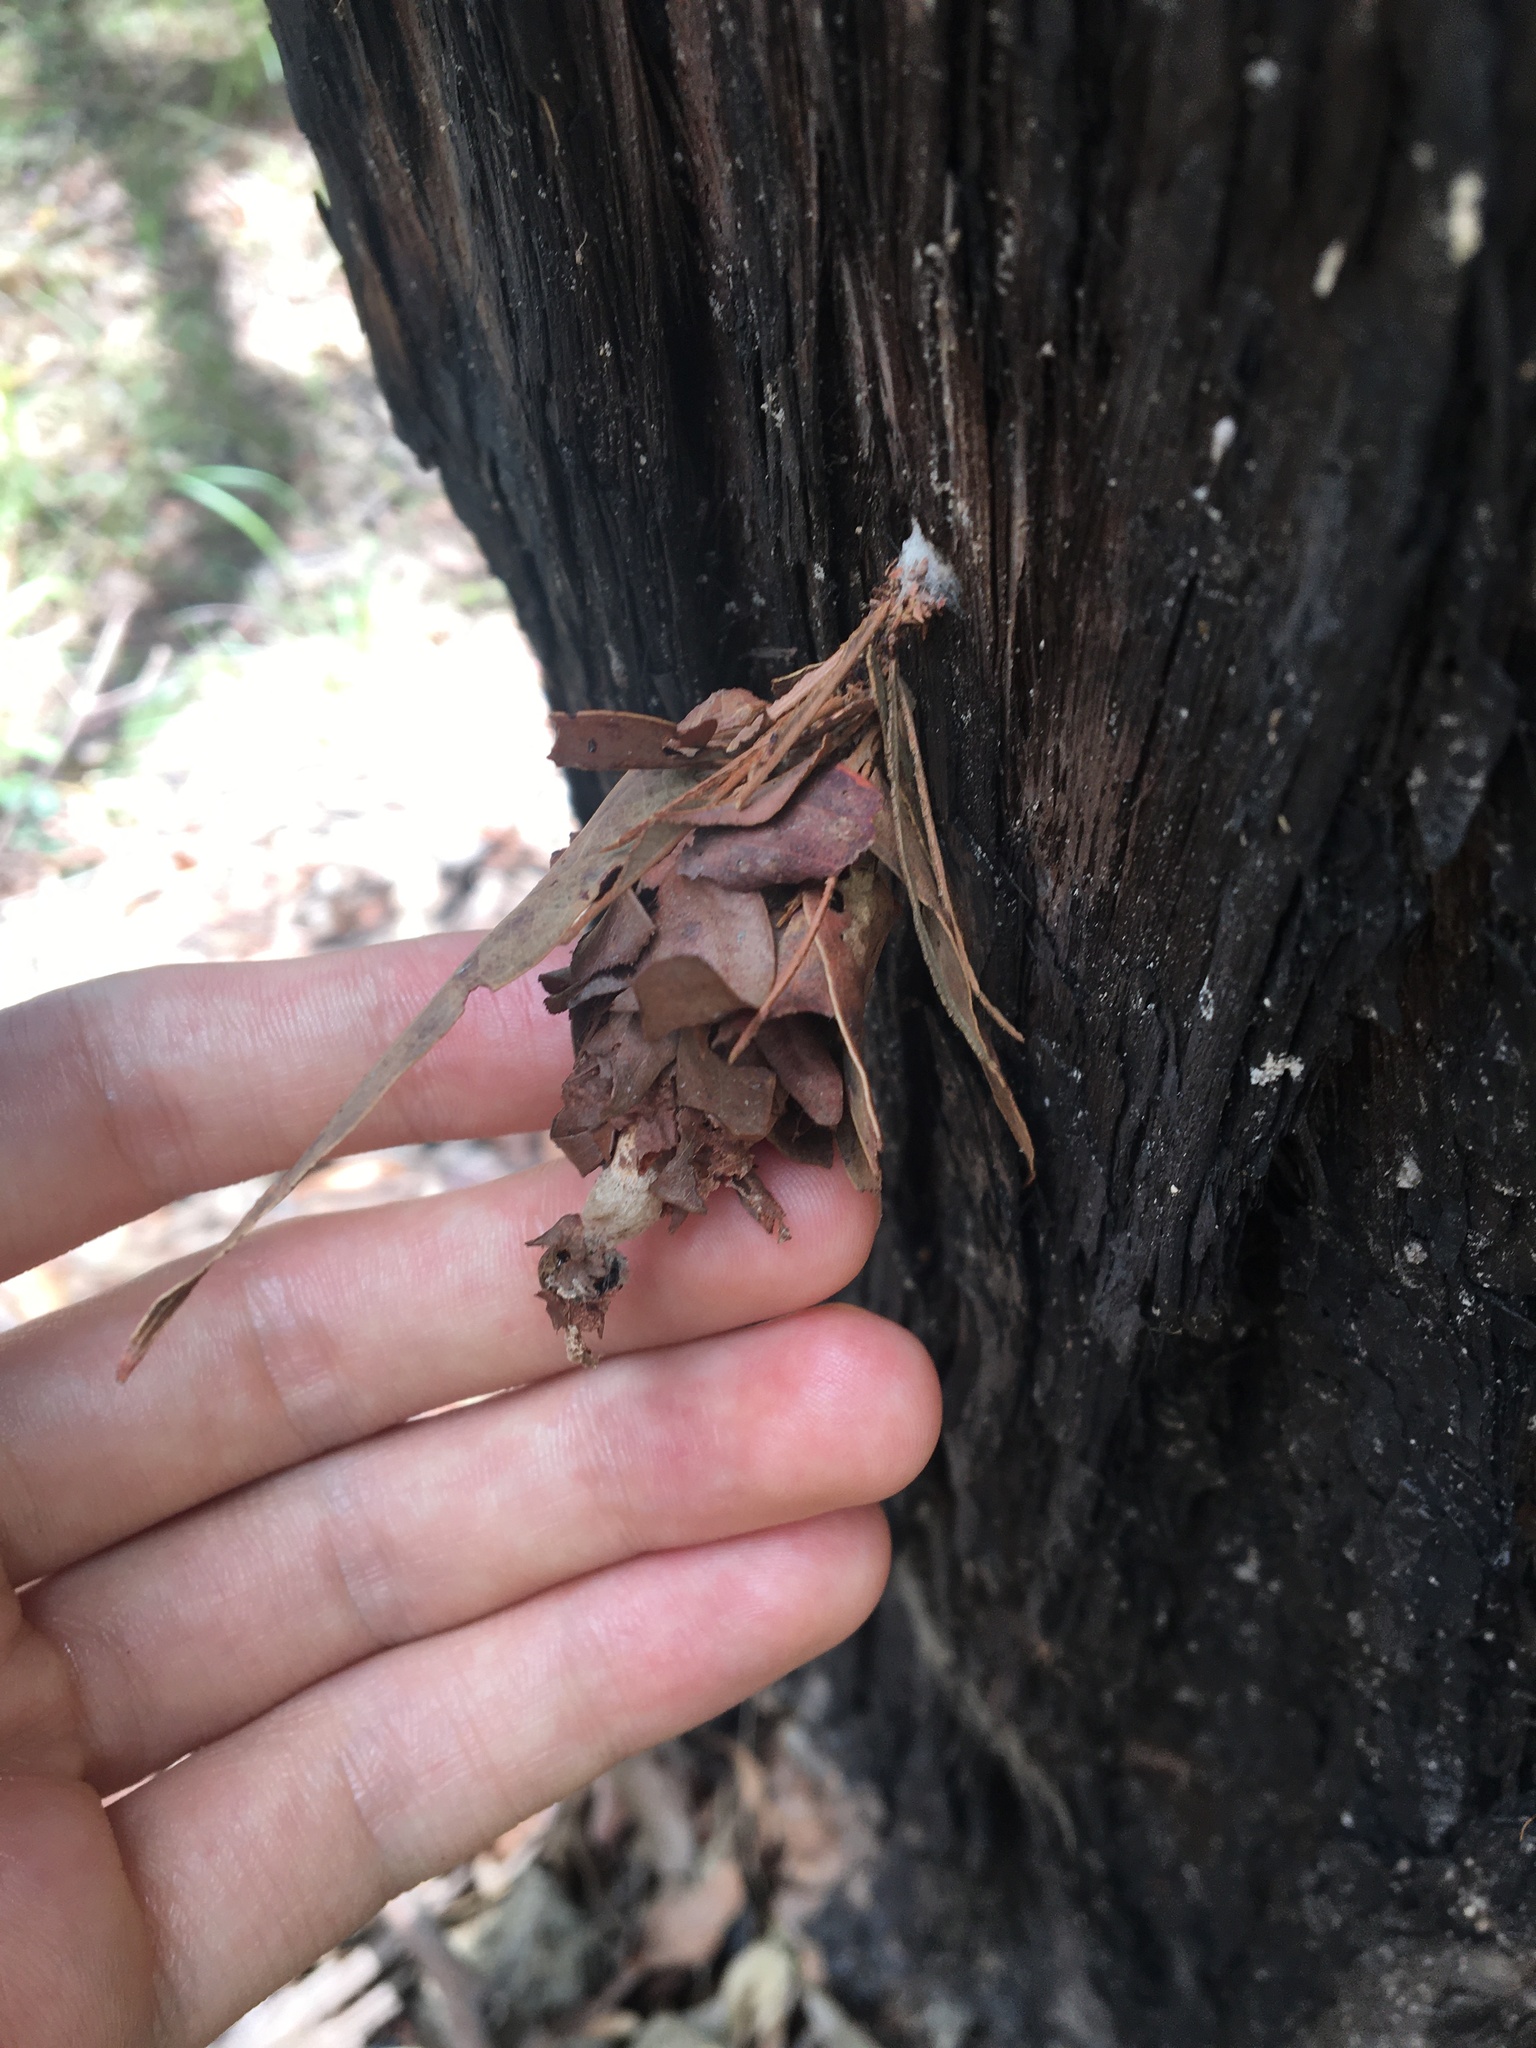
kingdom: Animalia
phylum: Arthropoda
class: Insecta
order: Lepidoptera
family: Psychidae
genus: Hyalarcta
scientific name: Hyalarcta huebneri
